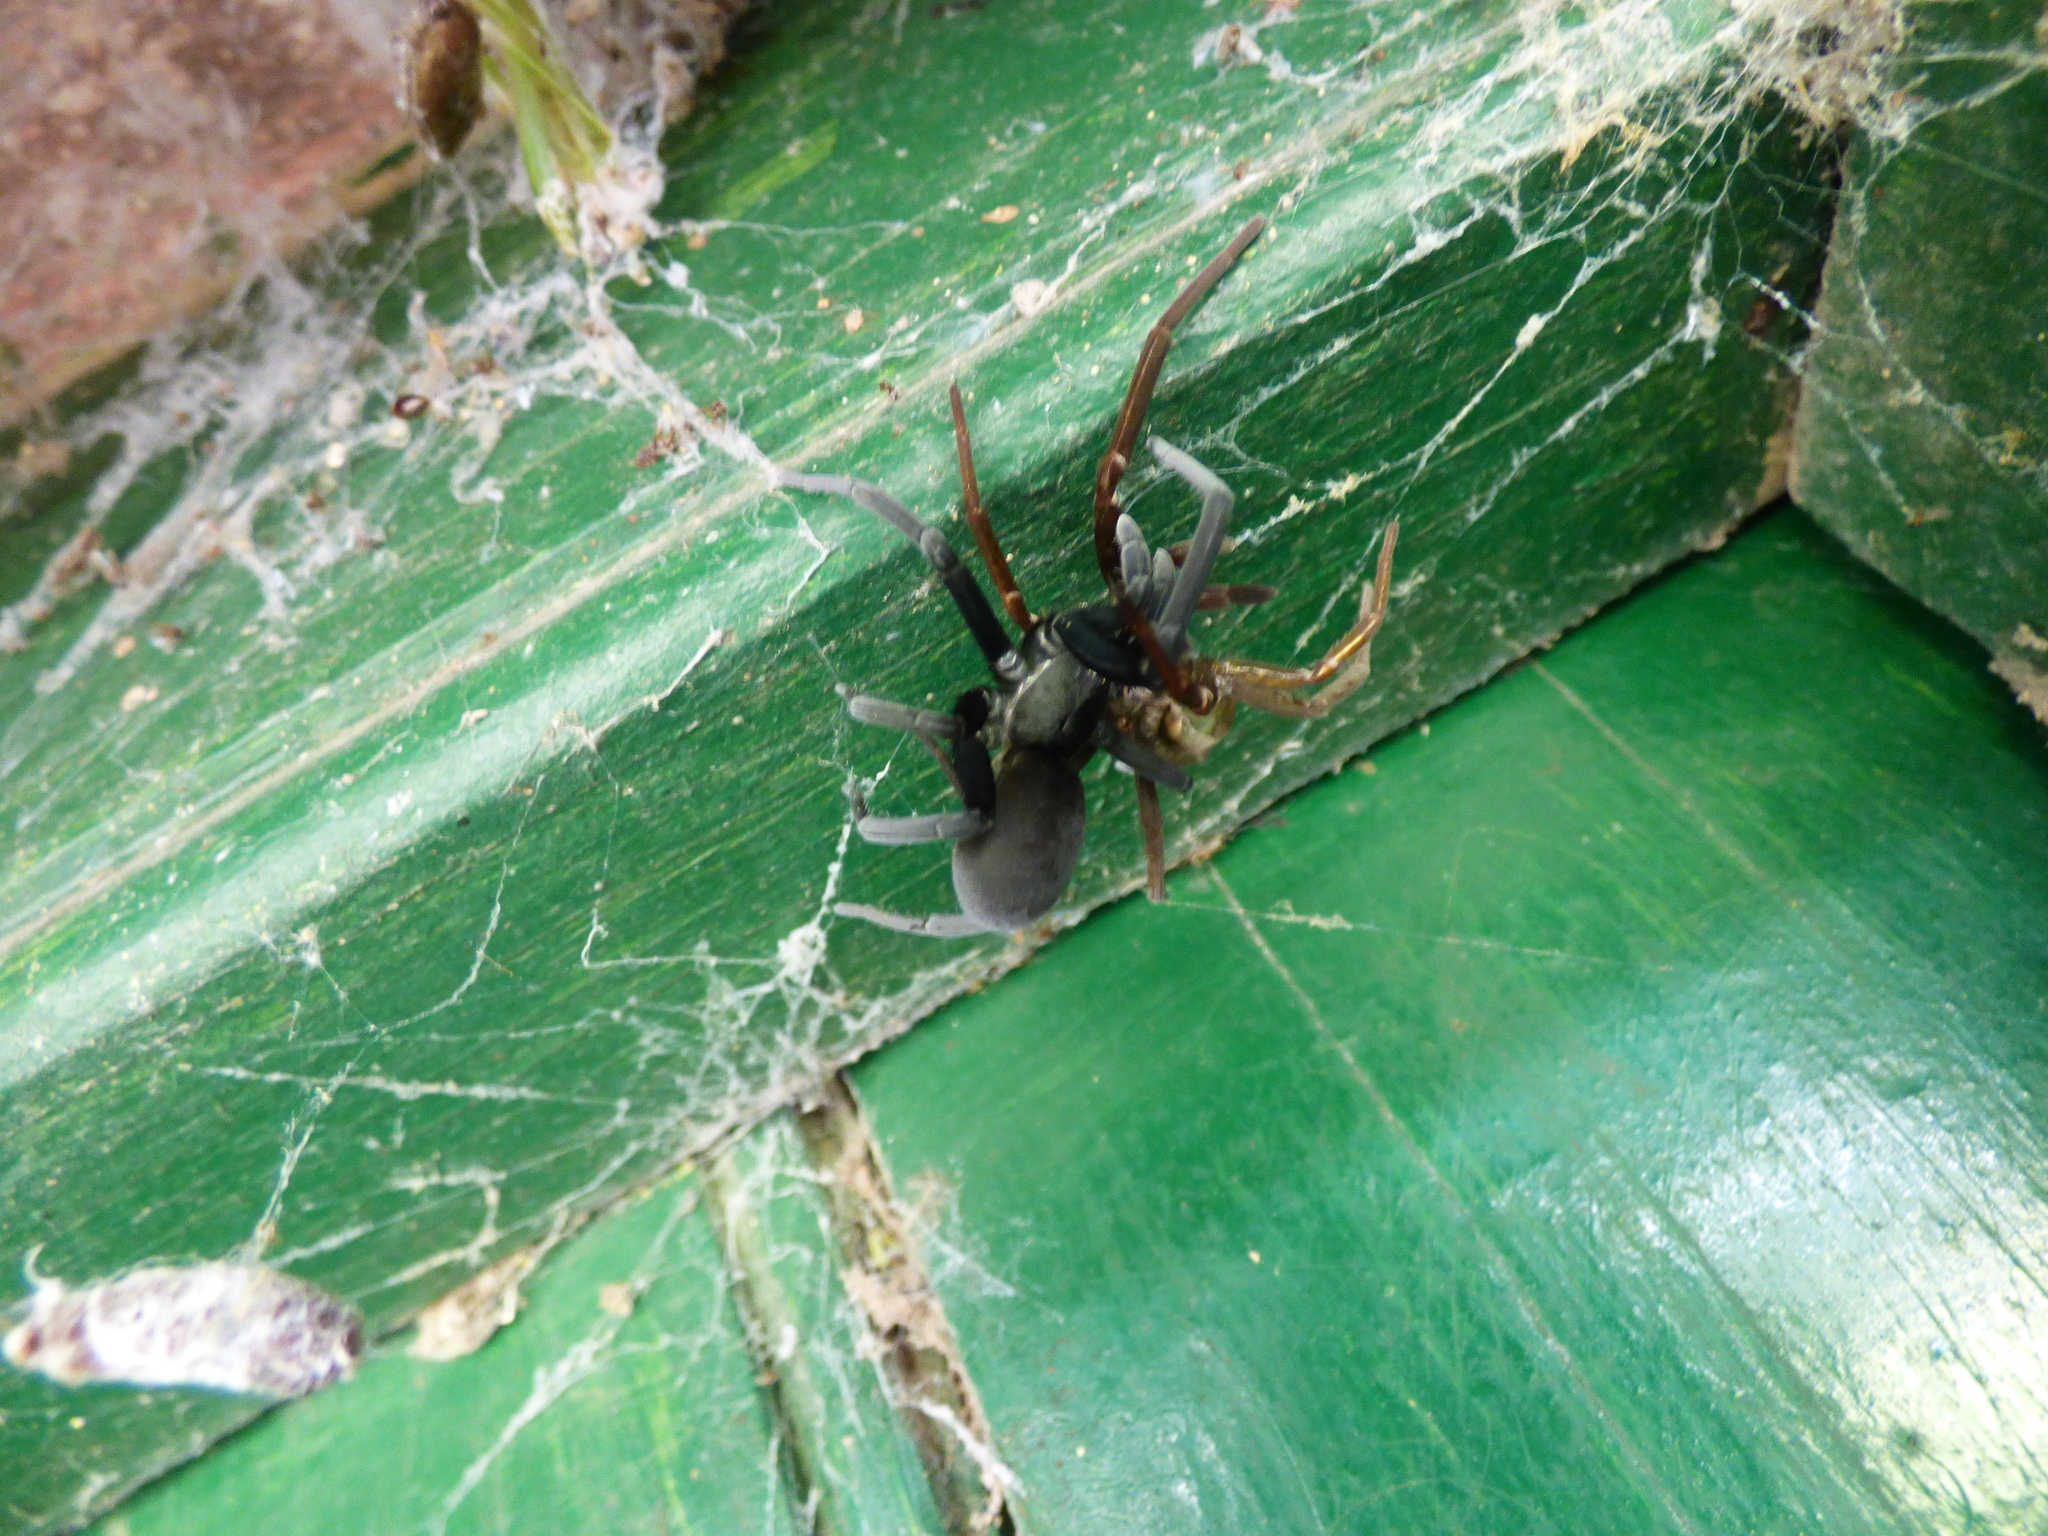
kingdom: Animalia
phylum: Arthropoda
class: Arachnida
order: Araneae
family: Filistatidae
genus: Kukulcania
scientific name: Kukulcania hibernalis
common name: Crevice weaver
